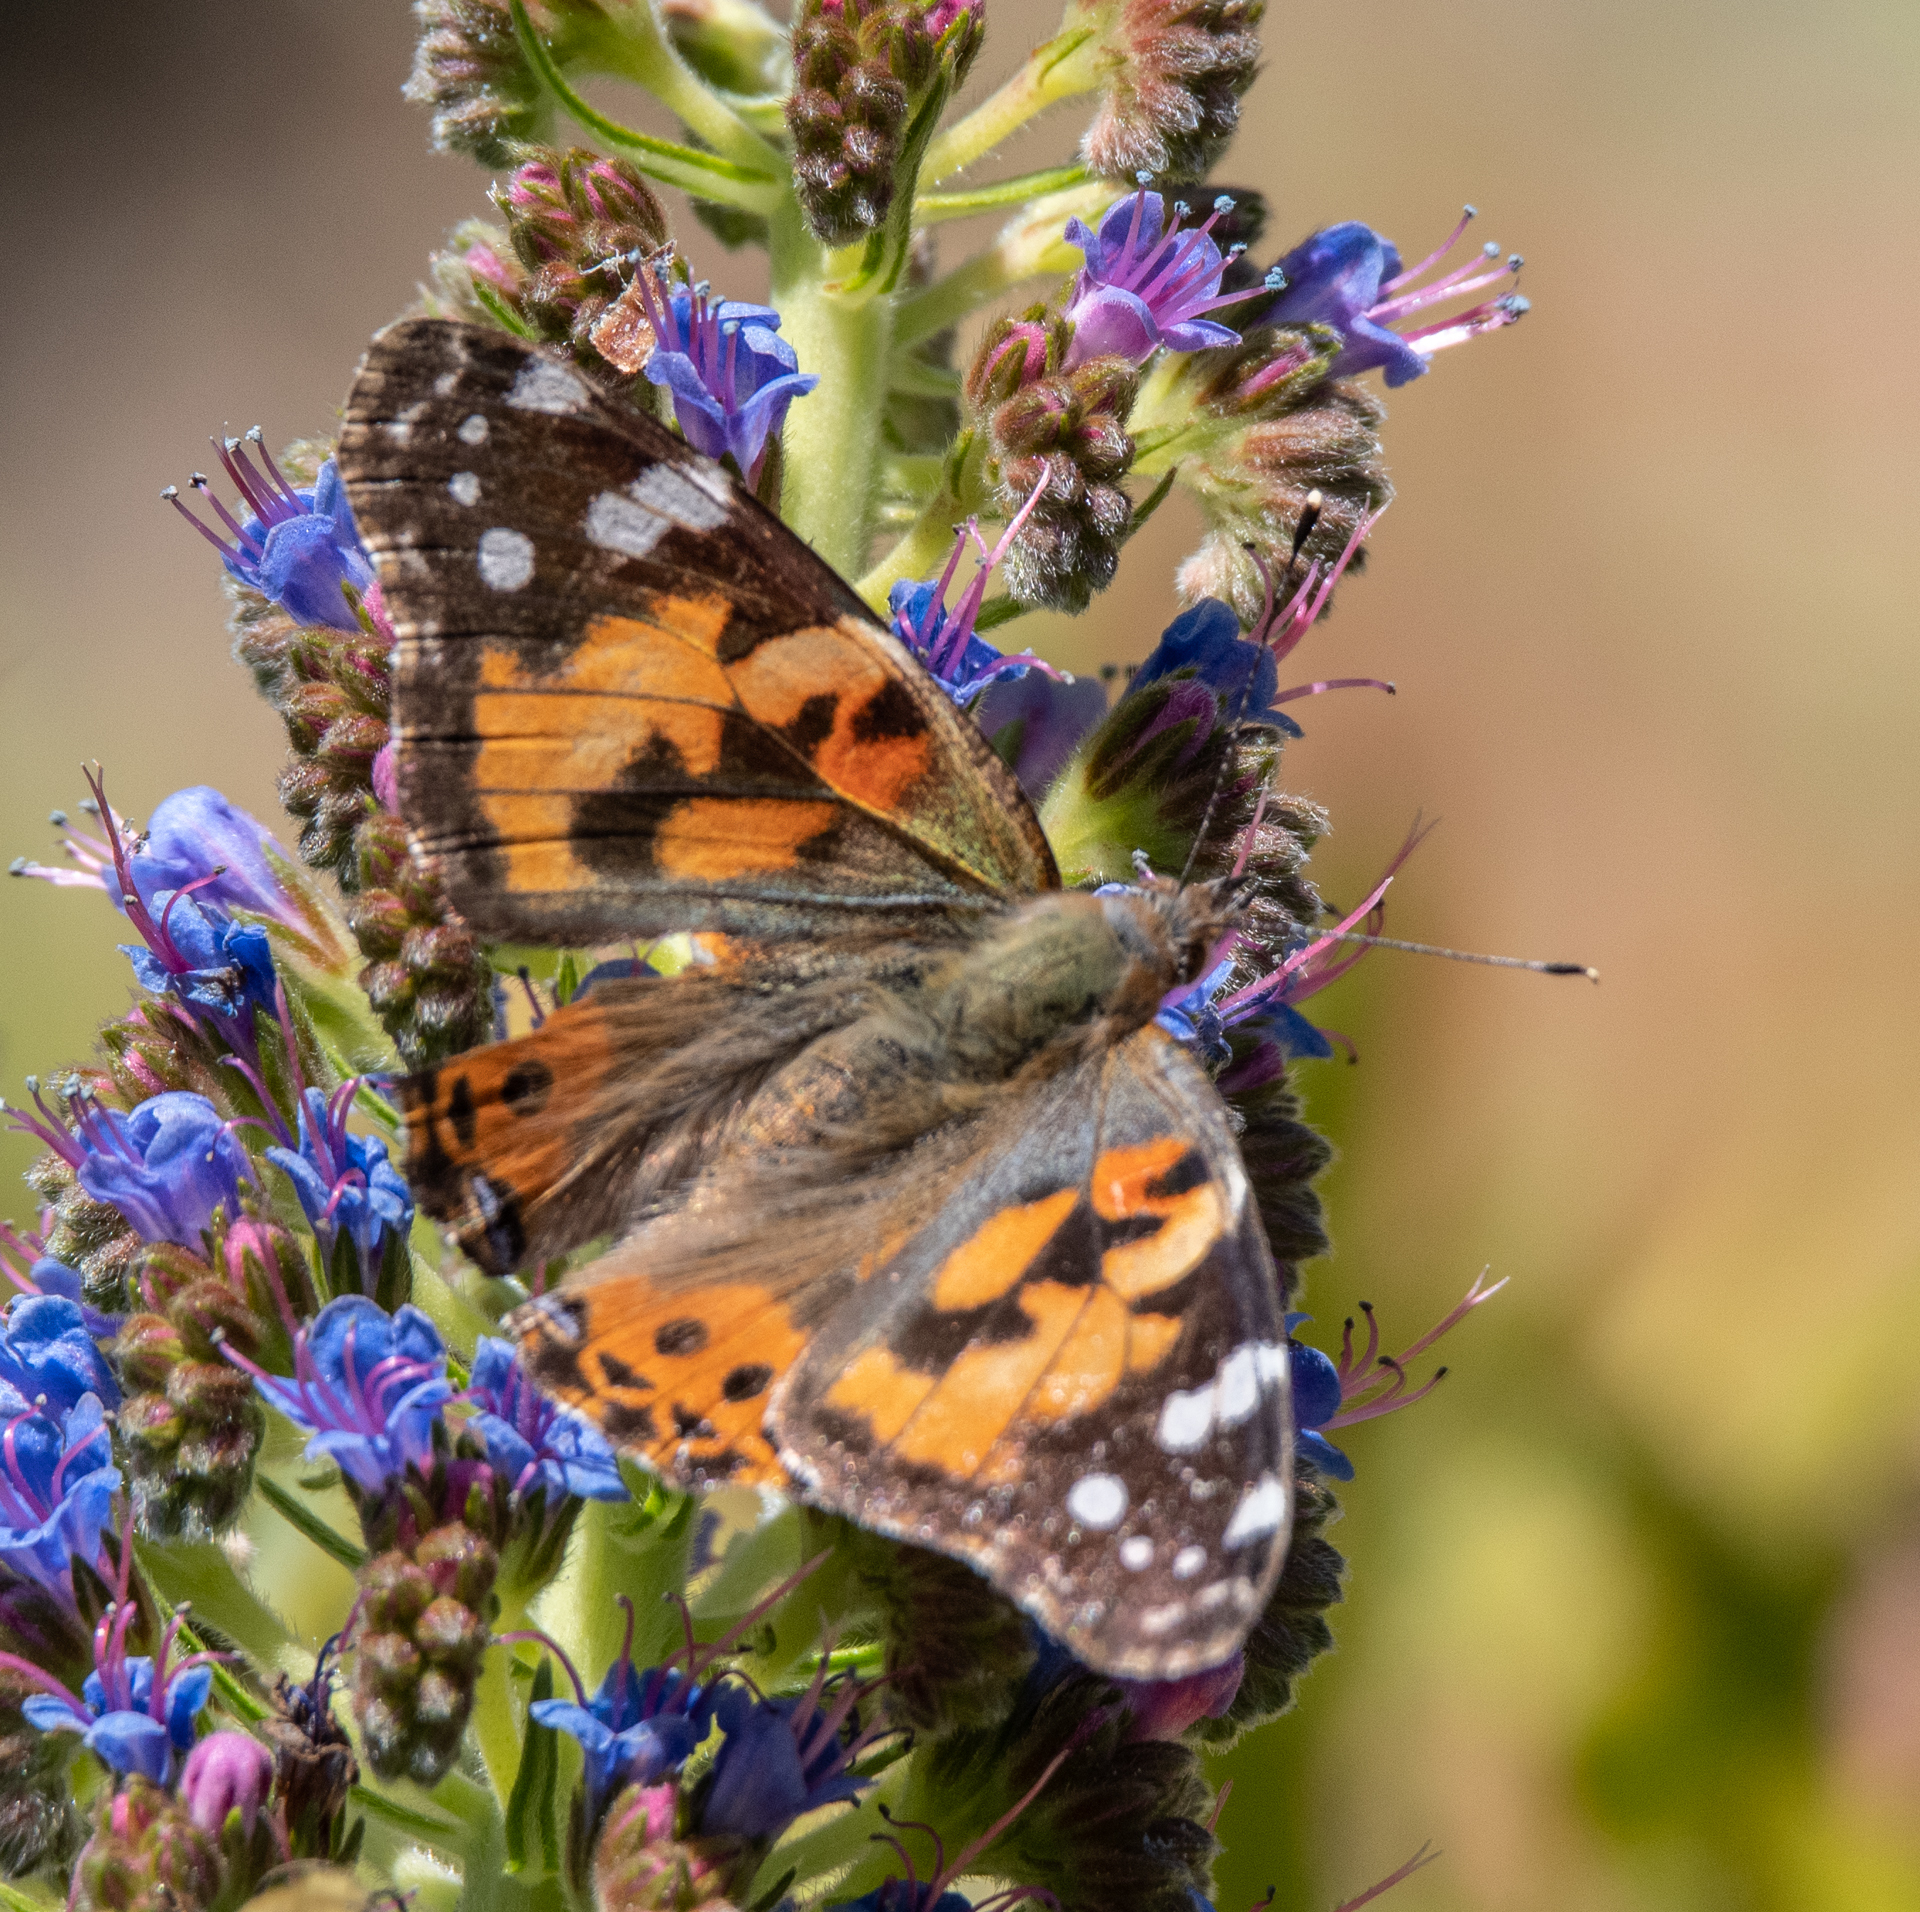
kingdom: Animalia
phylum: Arthropoda
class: Insecta
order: Lepidoptera
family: Nymphalidae
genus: Vanessa
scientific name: Vanessa cardui
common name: Painted lady
